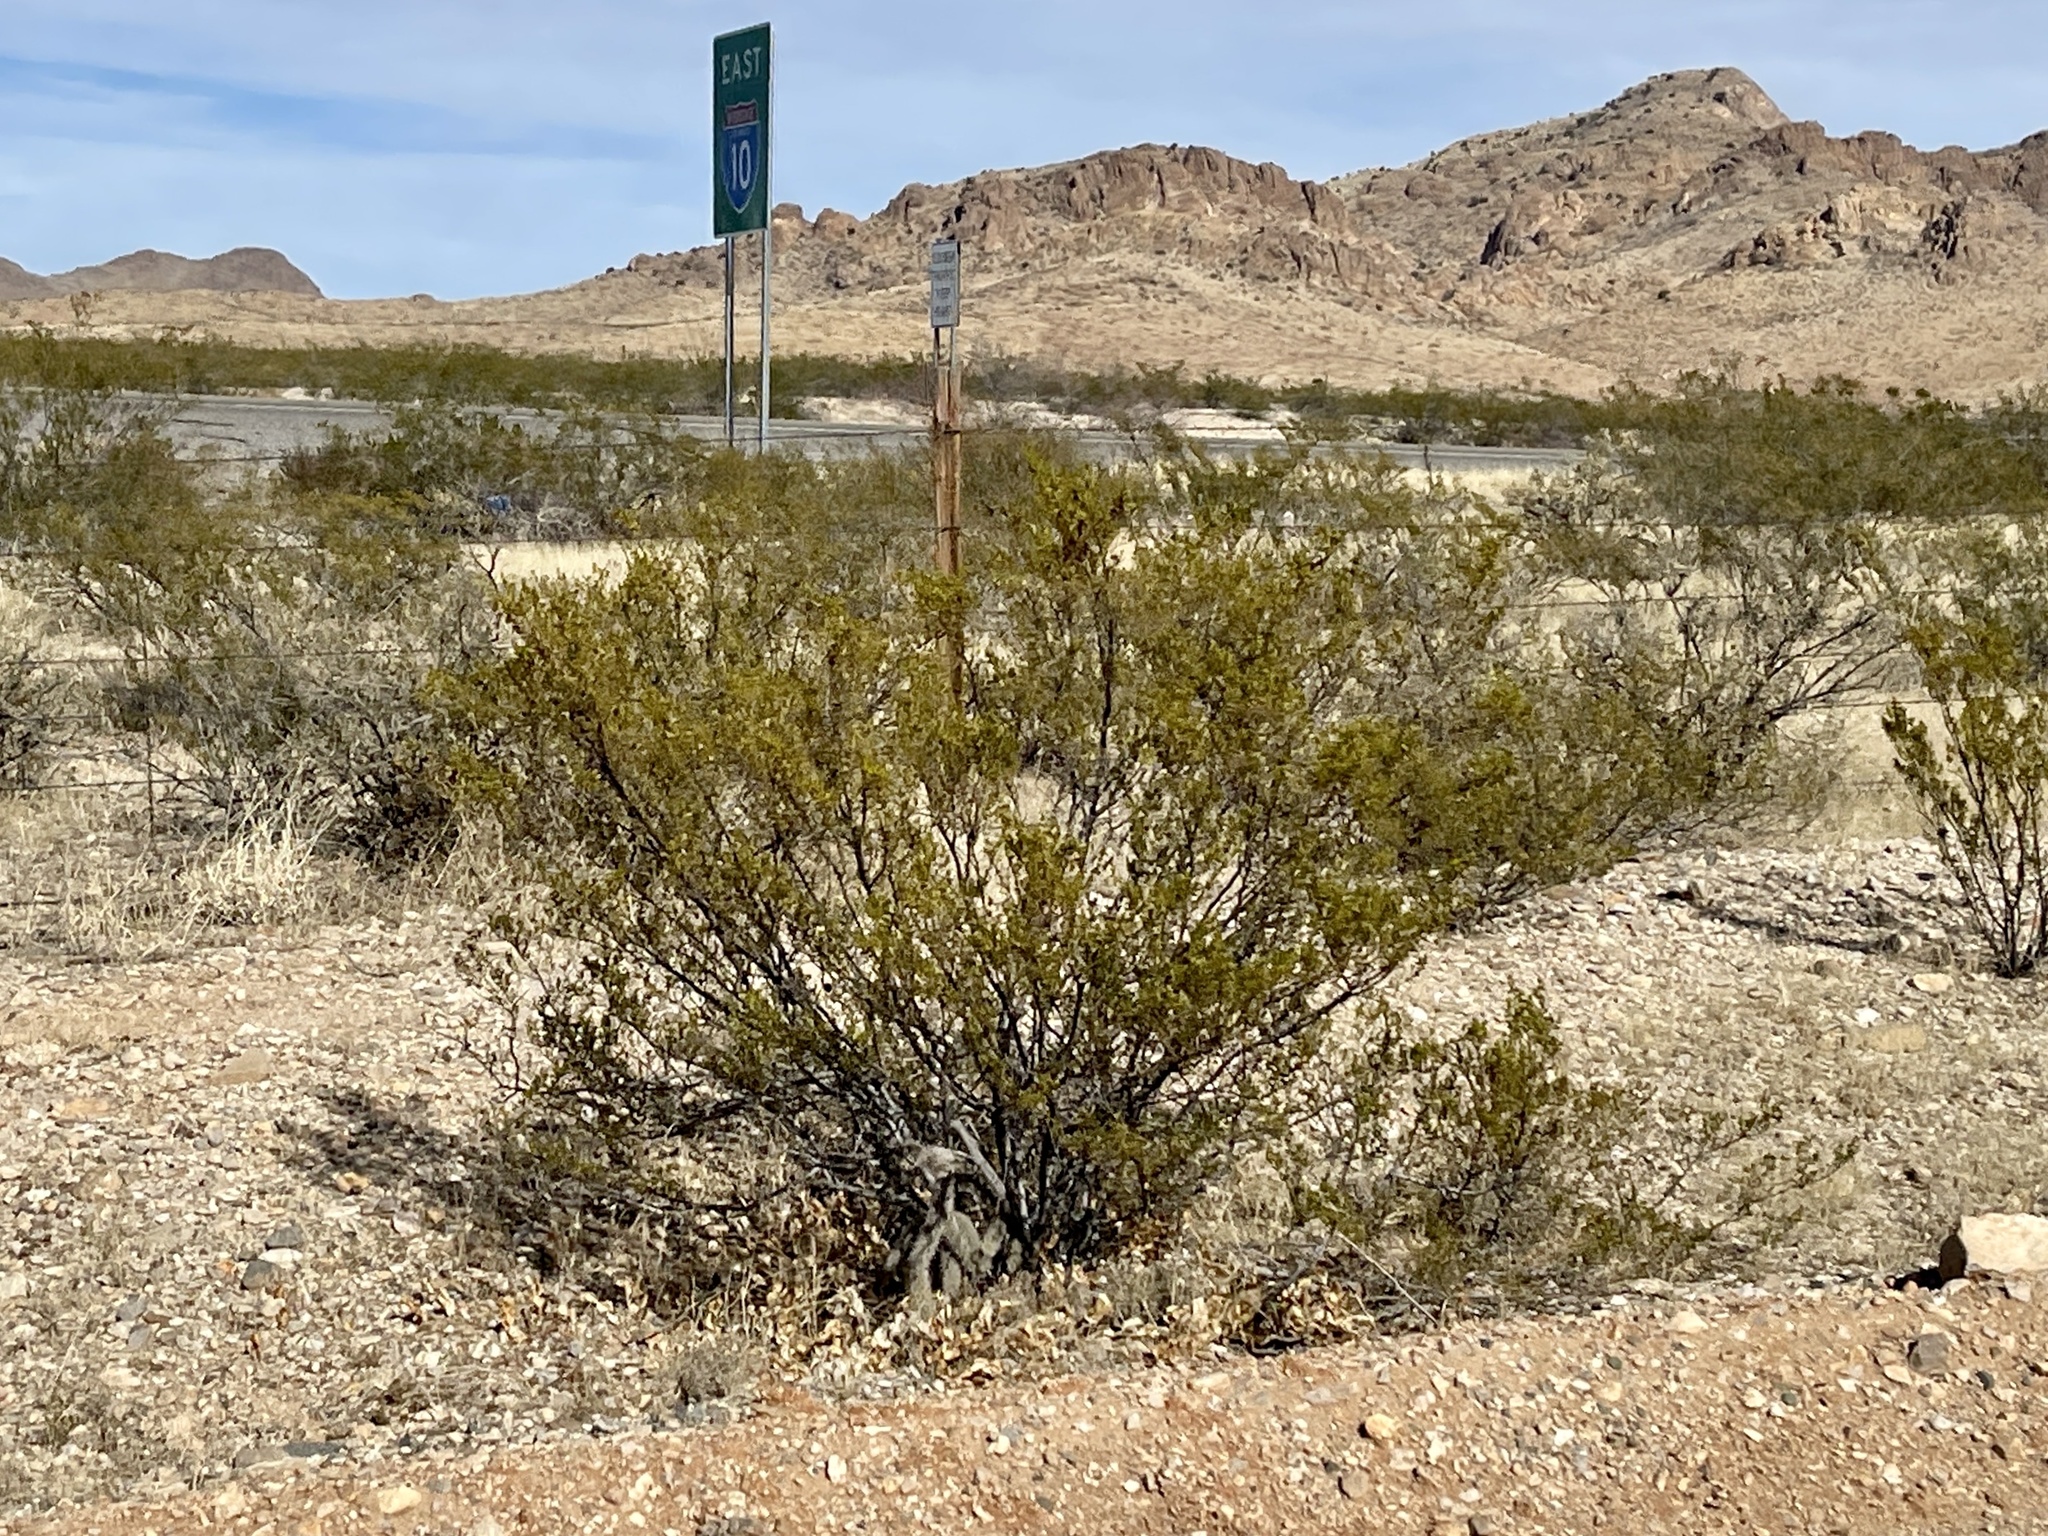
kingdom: Plantae
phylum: Tracheophyta
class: Magnoliopsida
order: Zygophyllales
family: Zygophyllaceae
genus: Larrea
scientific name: Larrea tridentata
